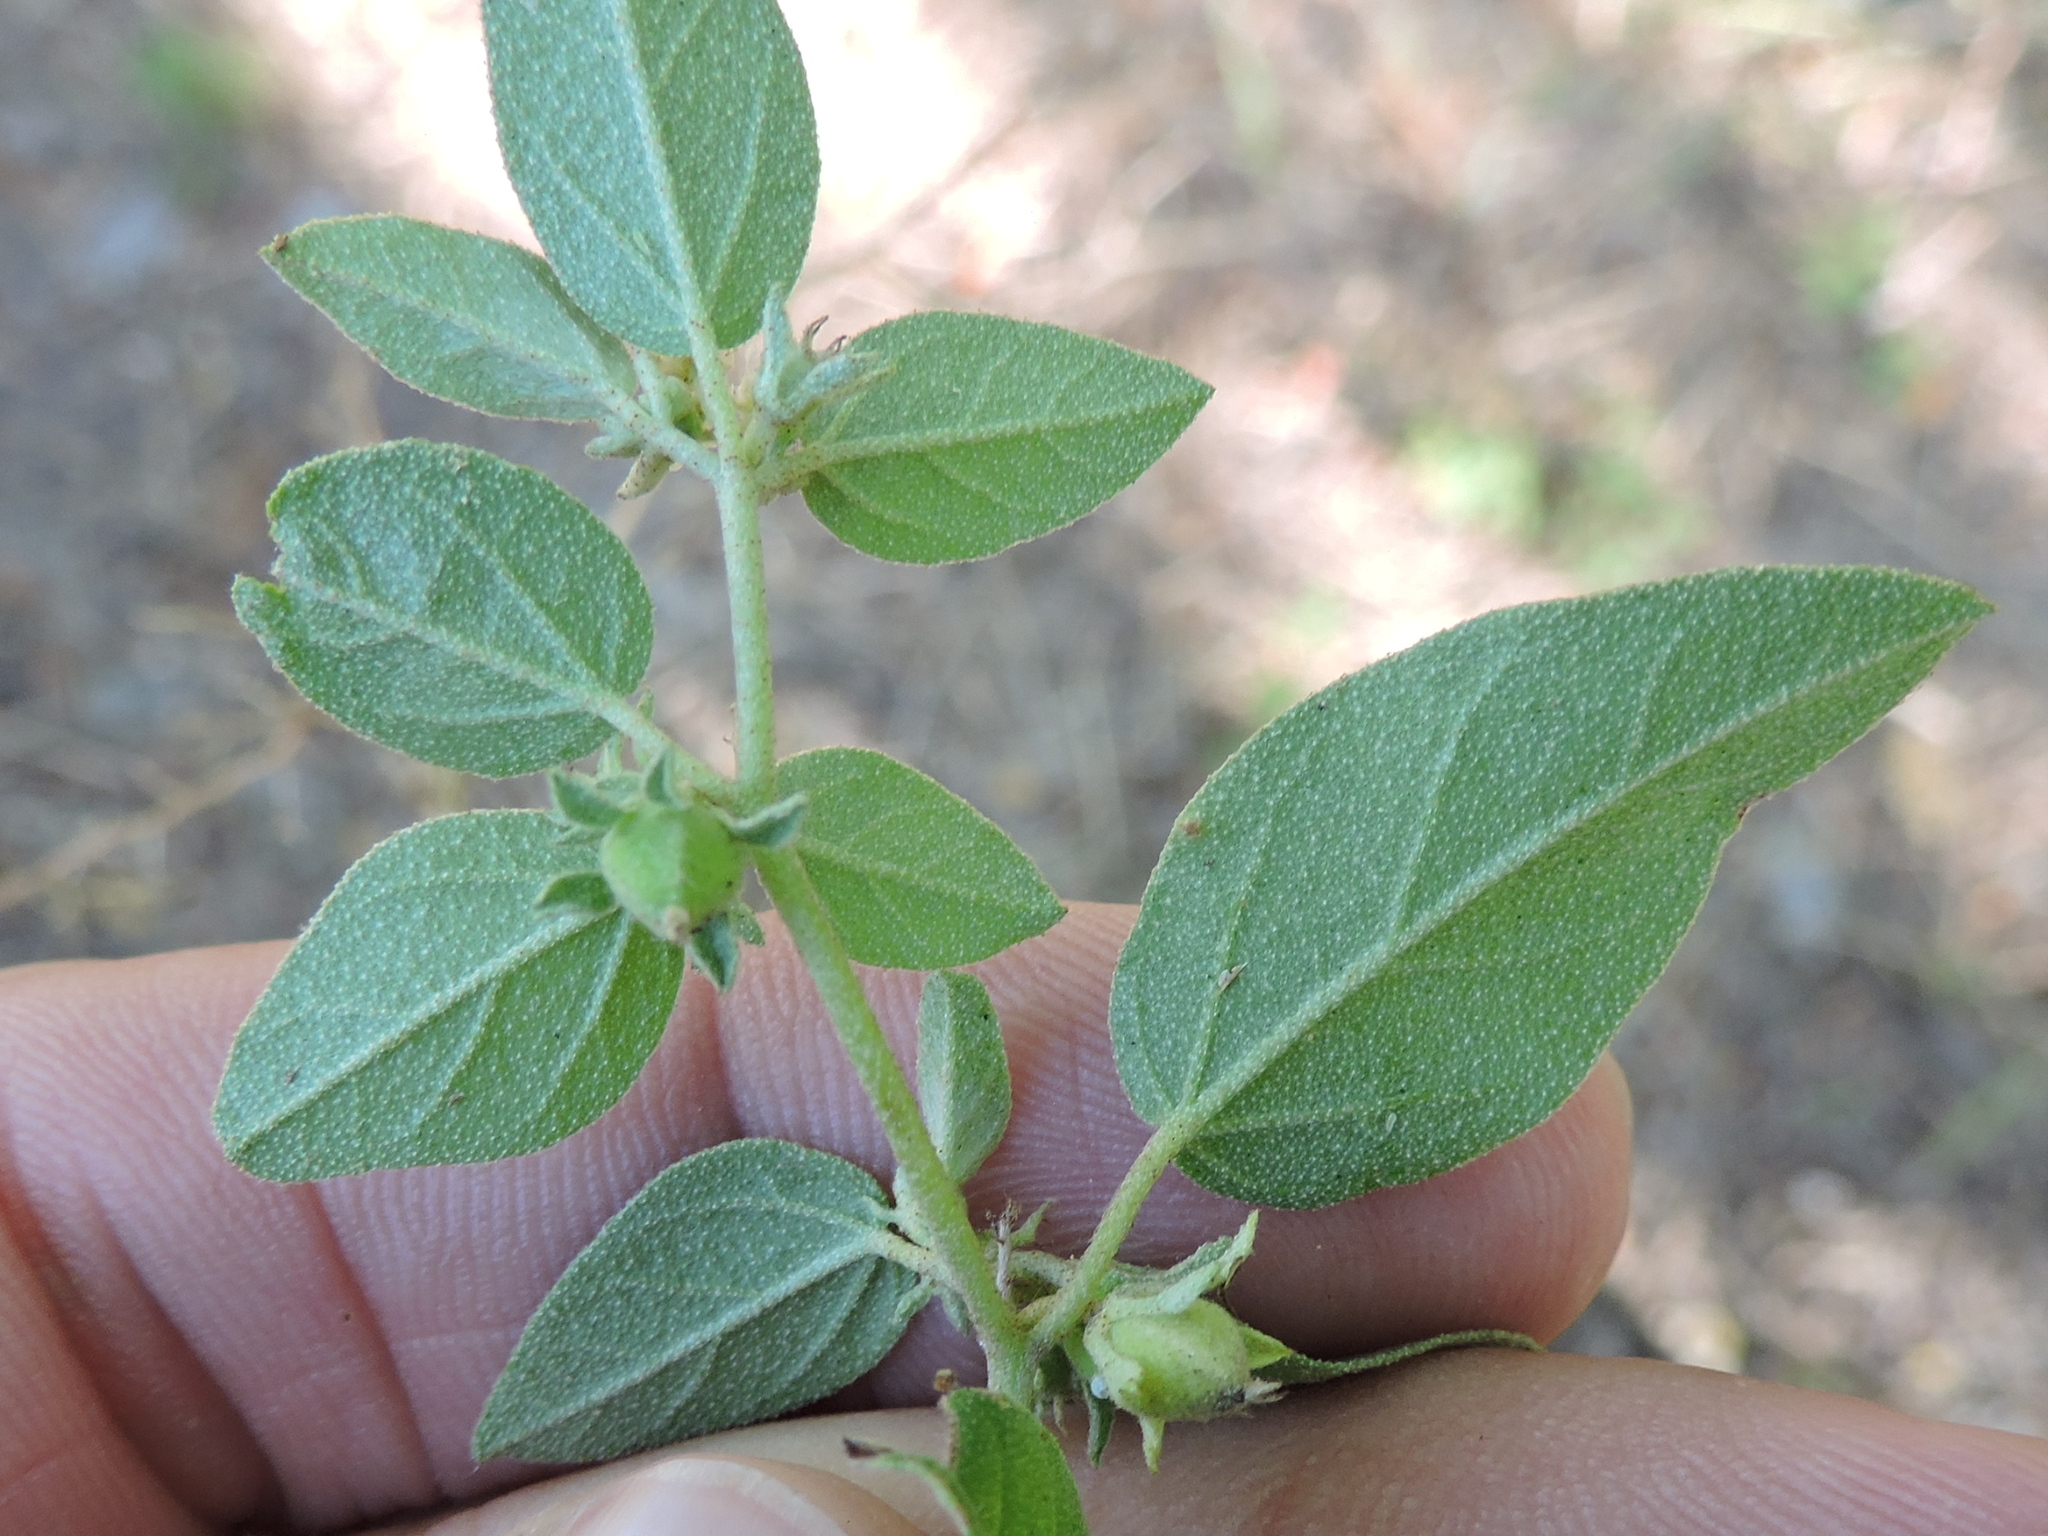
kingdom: Plantae
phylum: Tracheophyta
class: Magnoliopsida
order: Malpighiales
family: Euphorbiaceae
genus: Croton
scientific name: Croton monanthogynus
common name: One-seed croton
